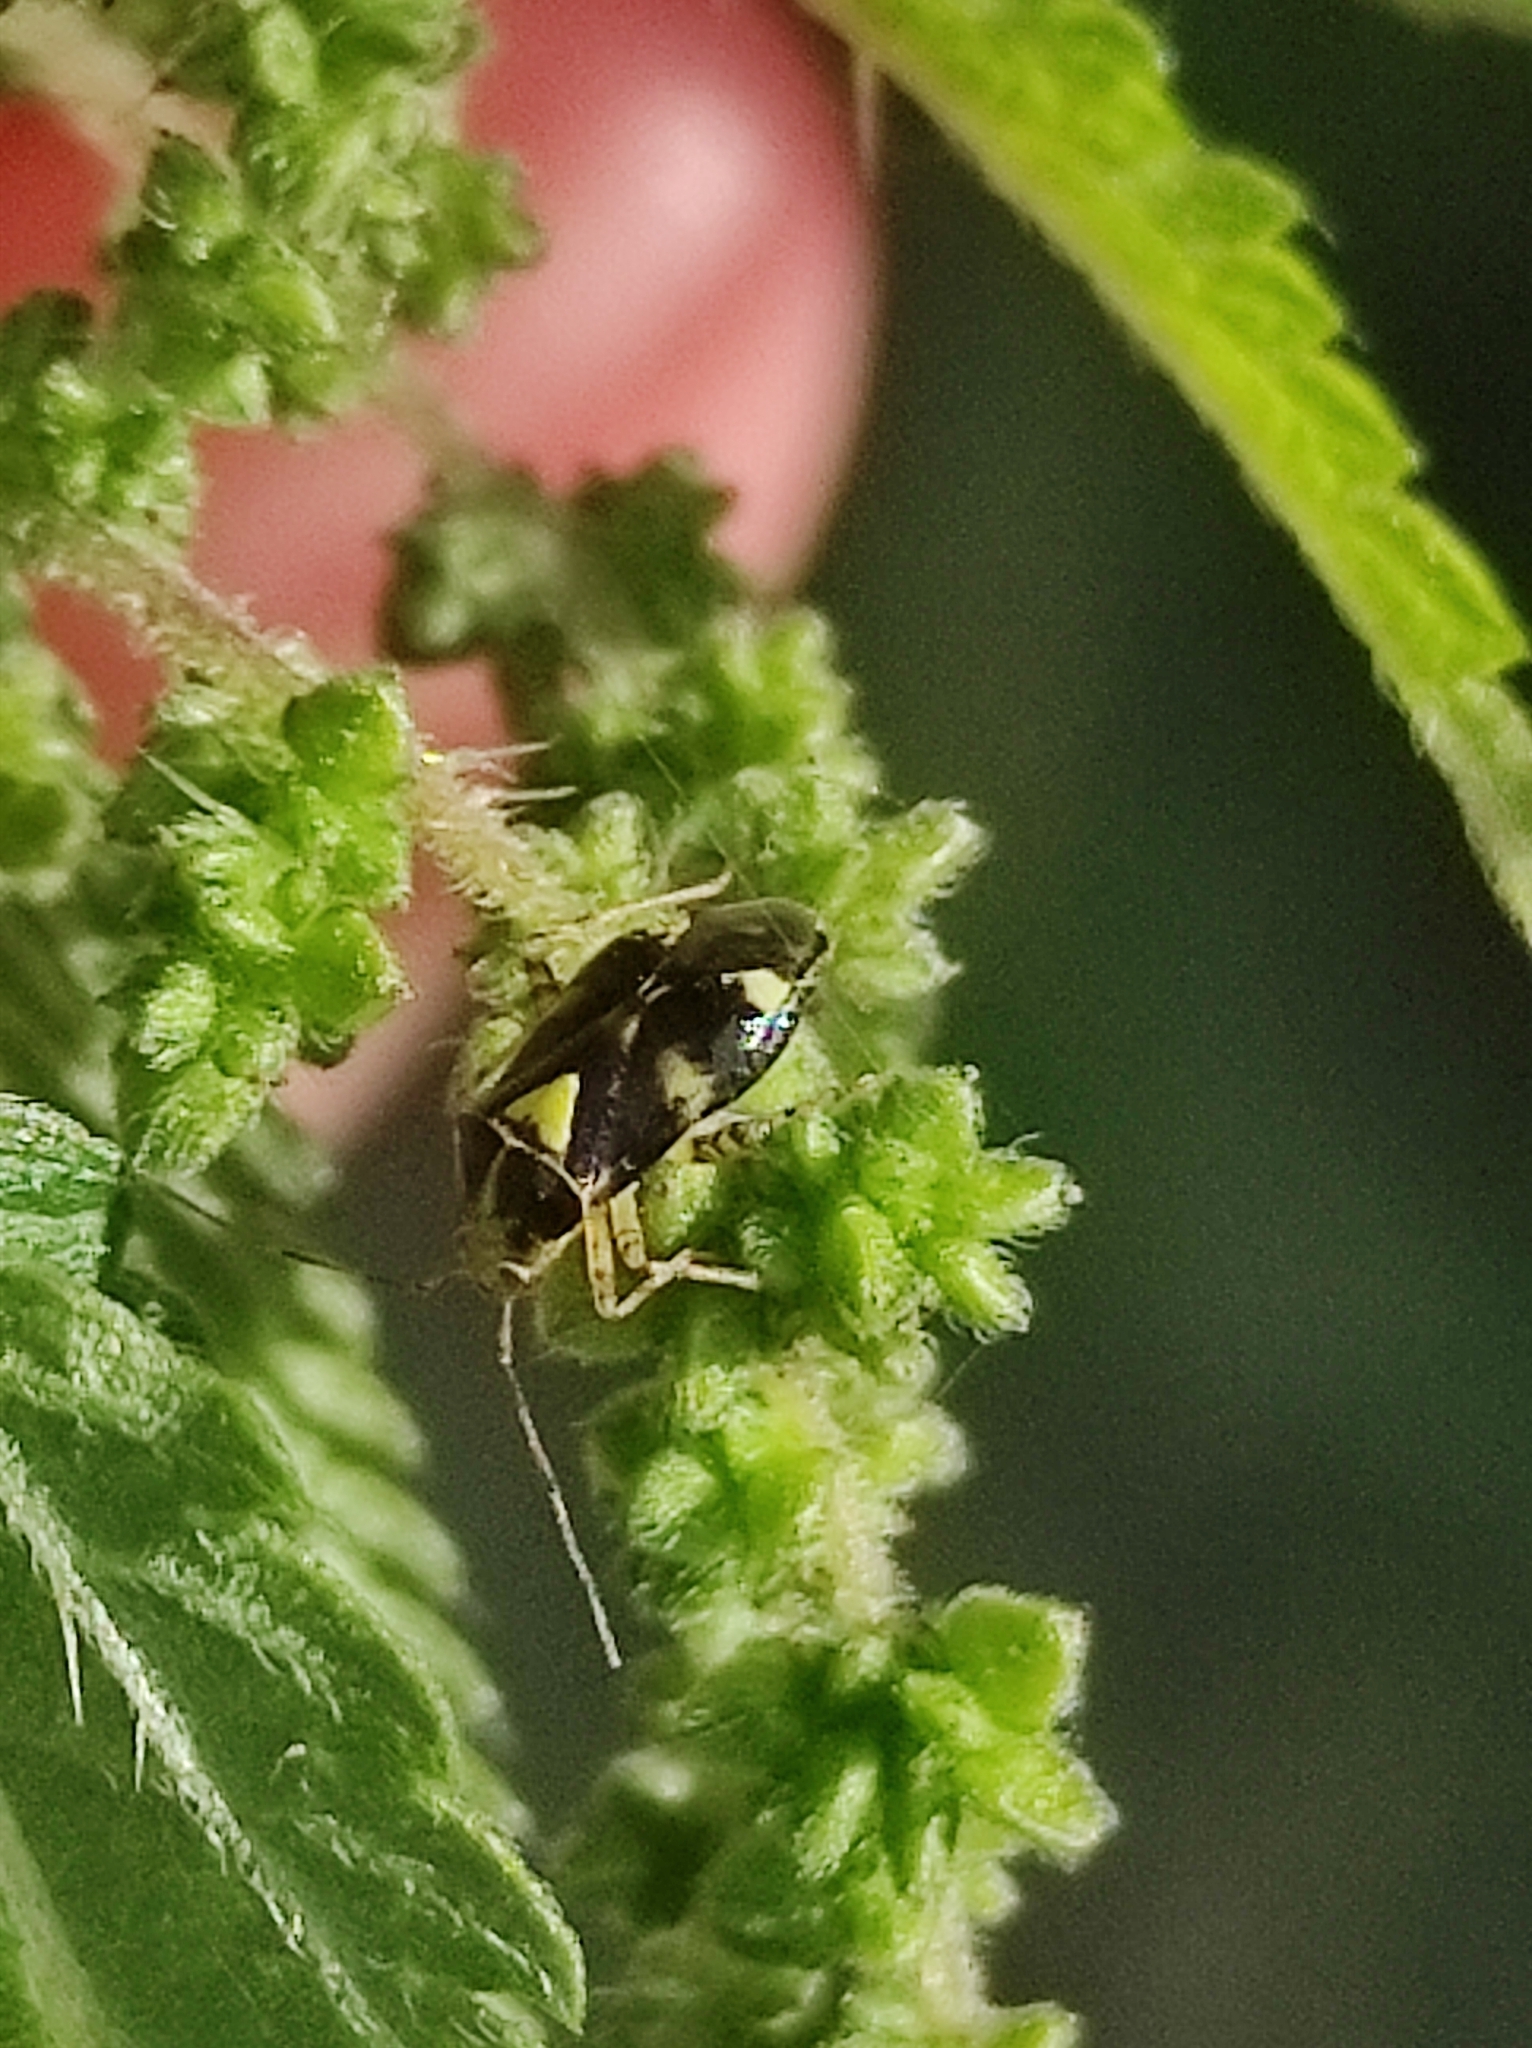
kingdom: Animalia
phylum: Arthropoda
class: Insecta
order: Hemiptera
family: Miridae
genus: Liocoris
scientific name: Liocoris tripustulatus
